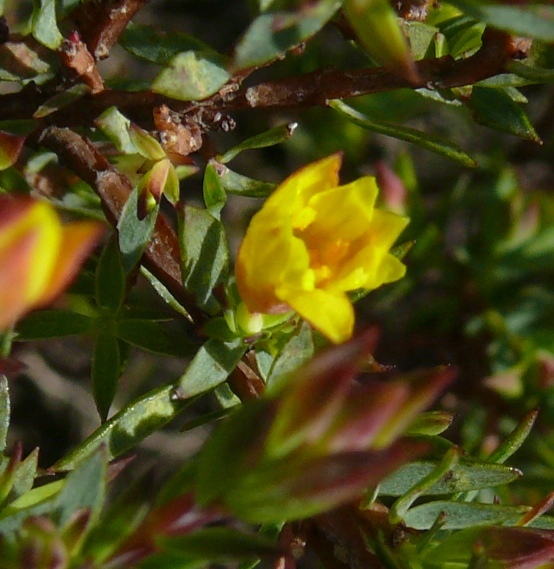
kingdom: Plantae
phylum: Tracheophyta
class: Magnoliopsida
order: Malvales
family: Thymelaeaceae
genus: Gnidia
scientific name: Gnidia juniperifolia
